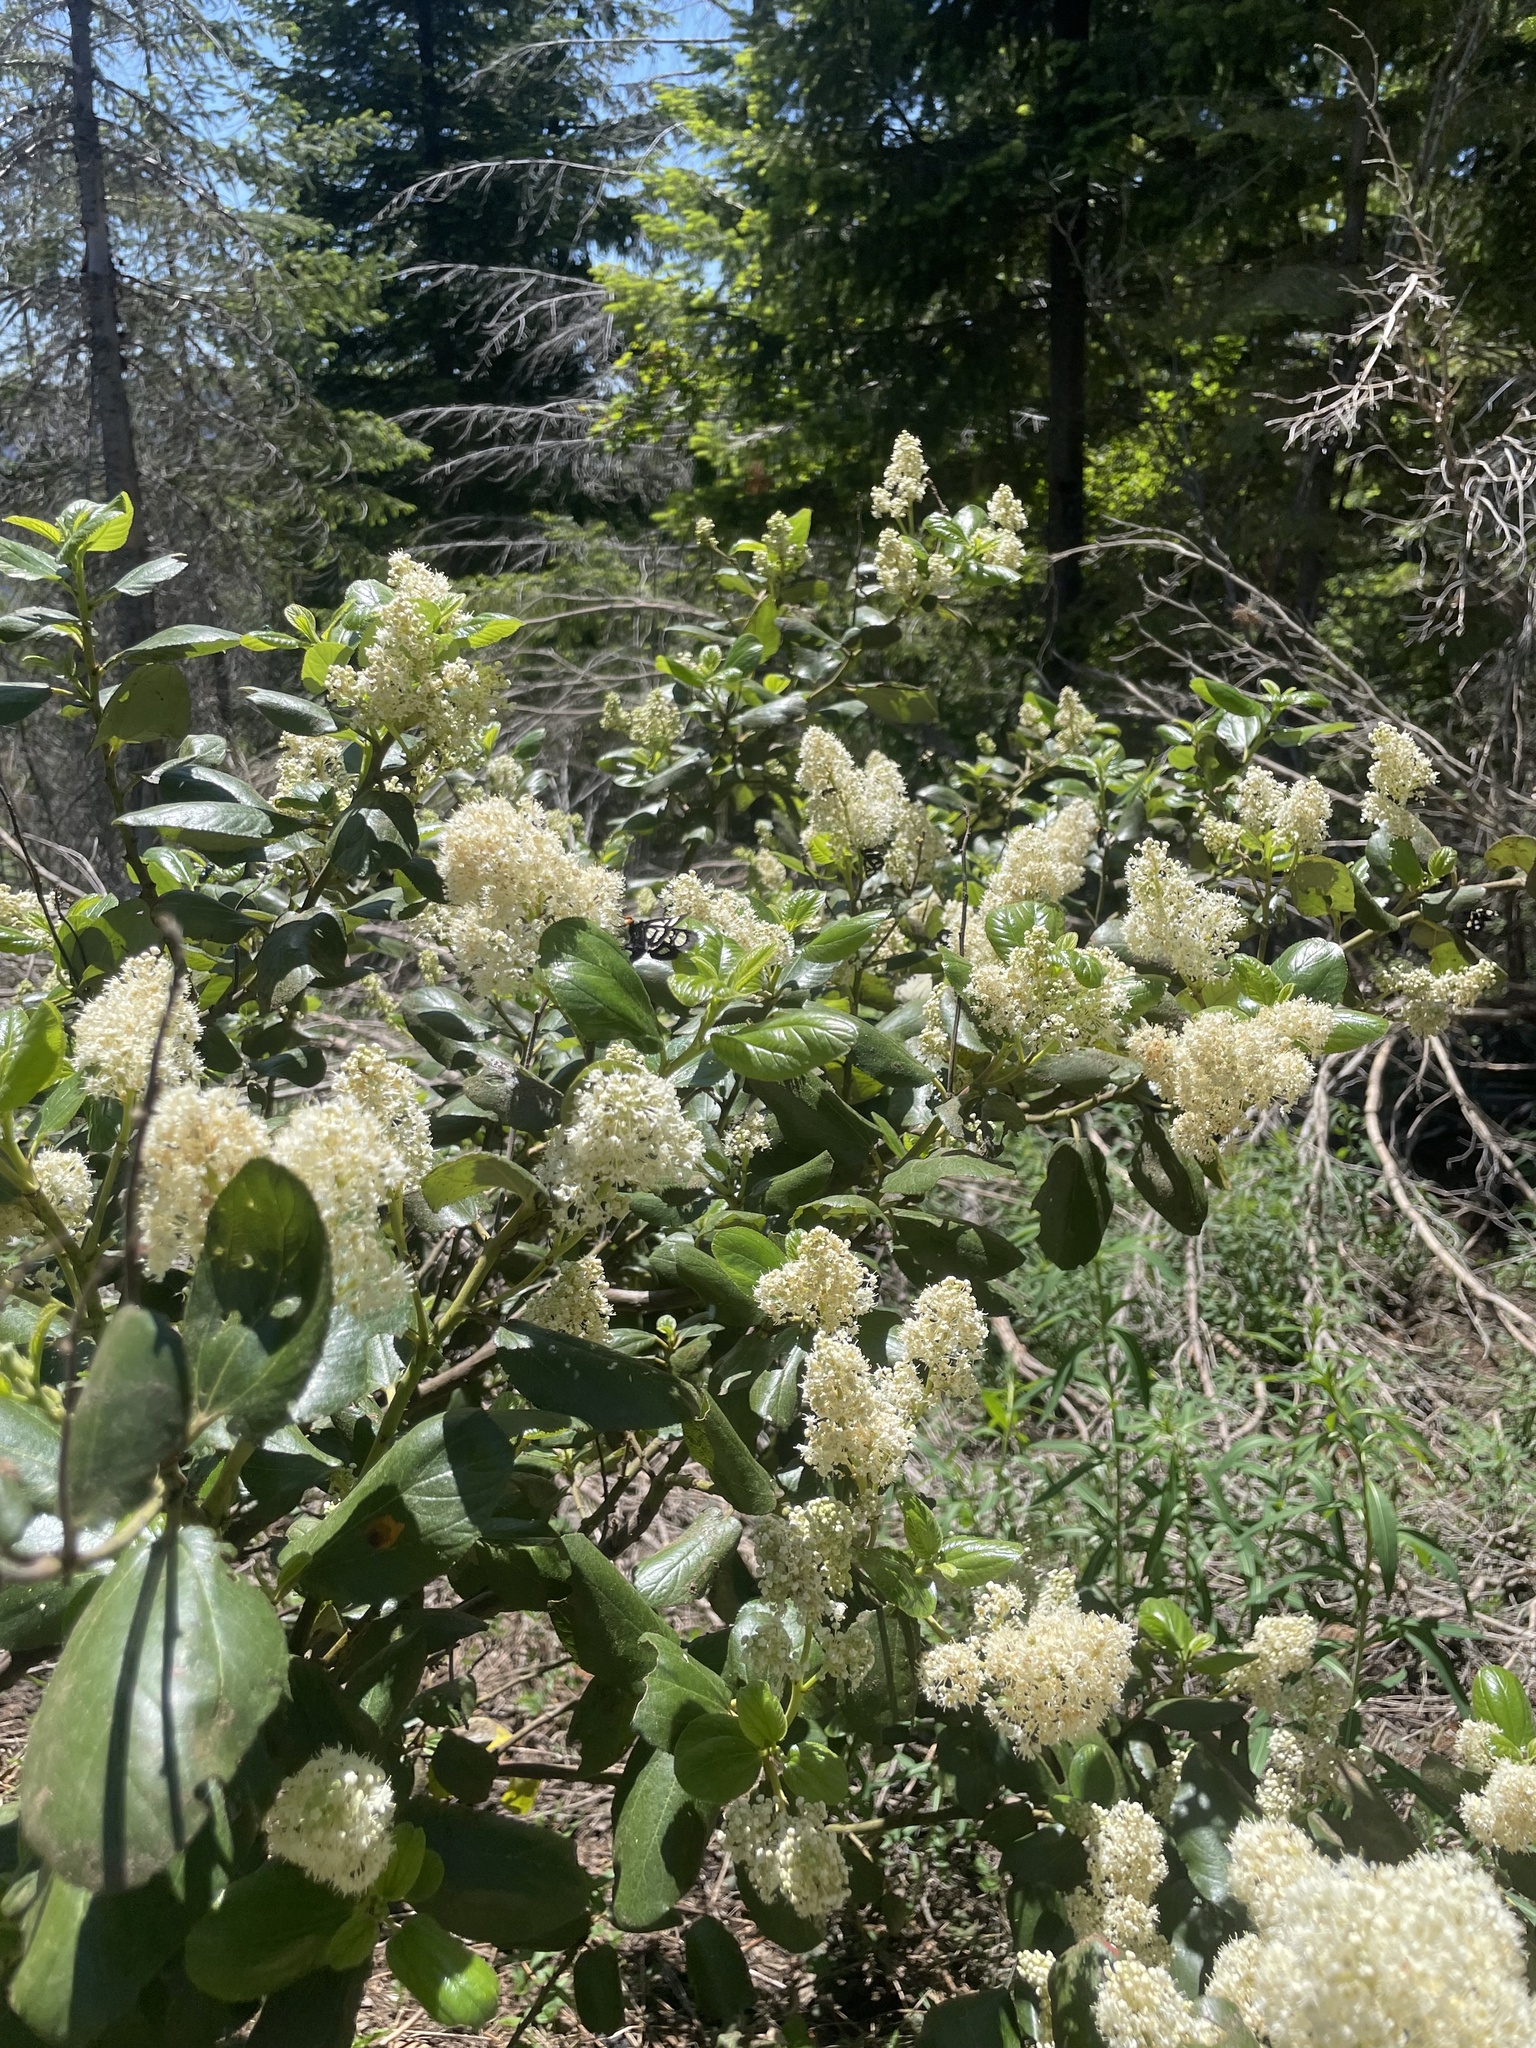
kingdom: Plantae
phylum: Tracheophyta
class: Magnoliopsida
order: Rosales
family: Rhamnaceae
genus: Ceanothus
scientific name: Ceanothus velutinus
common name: Snowbrush
